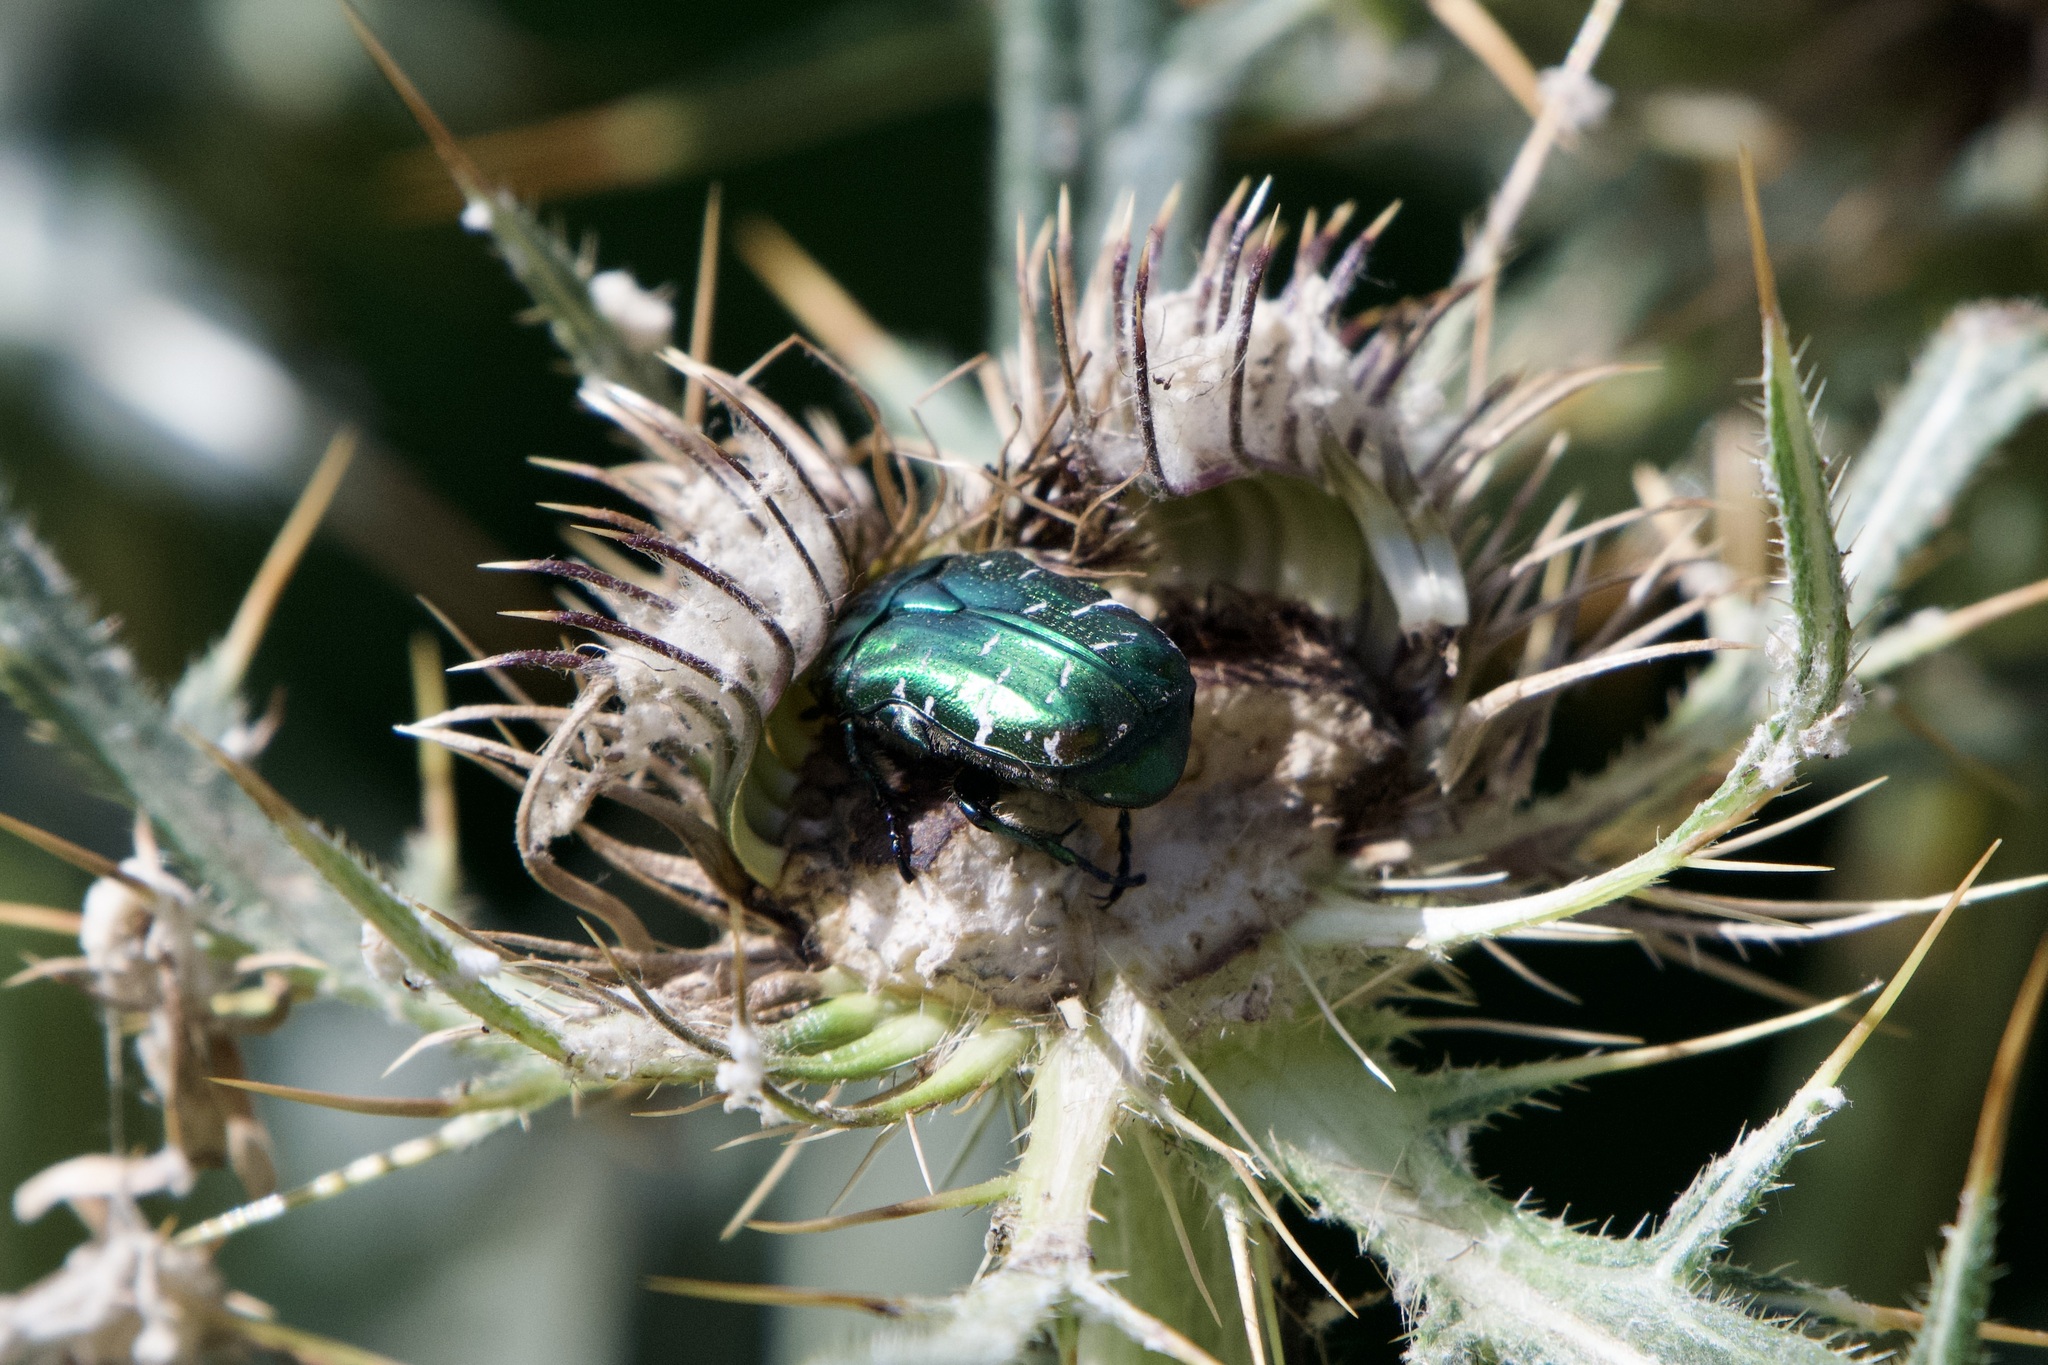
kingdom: Animalia
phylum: Arthropoda
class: Insecta
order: Coleoptera
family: Scarabaeidae
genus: Cetonia
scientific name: Cetonia aurata
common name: Rose chafer
